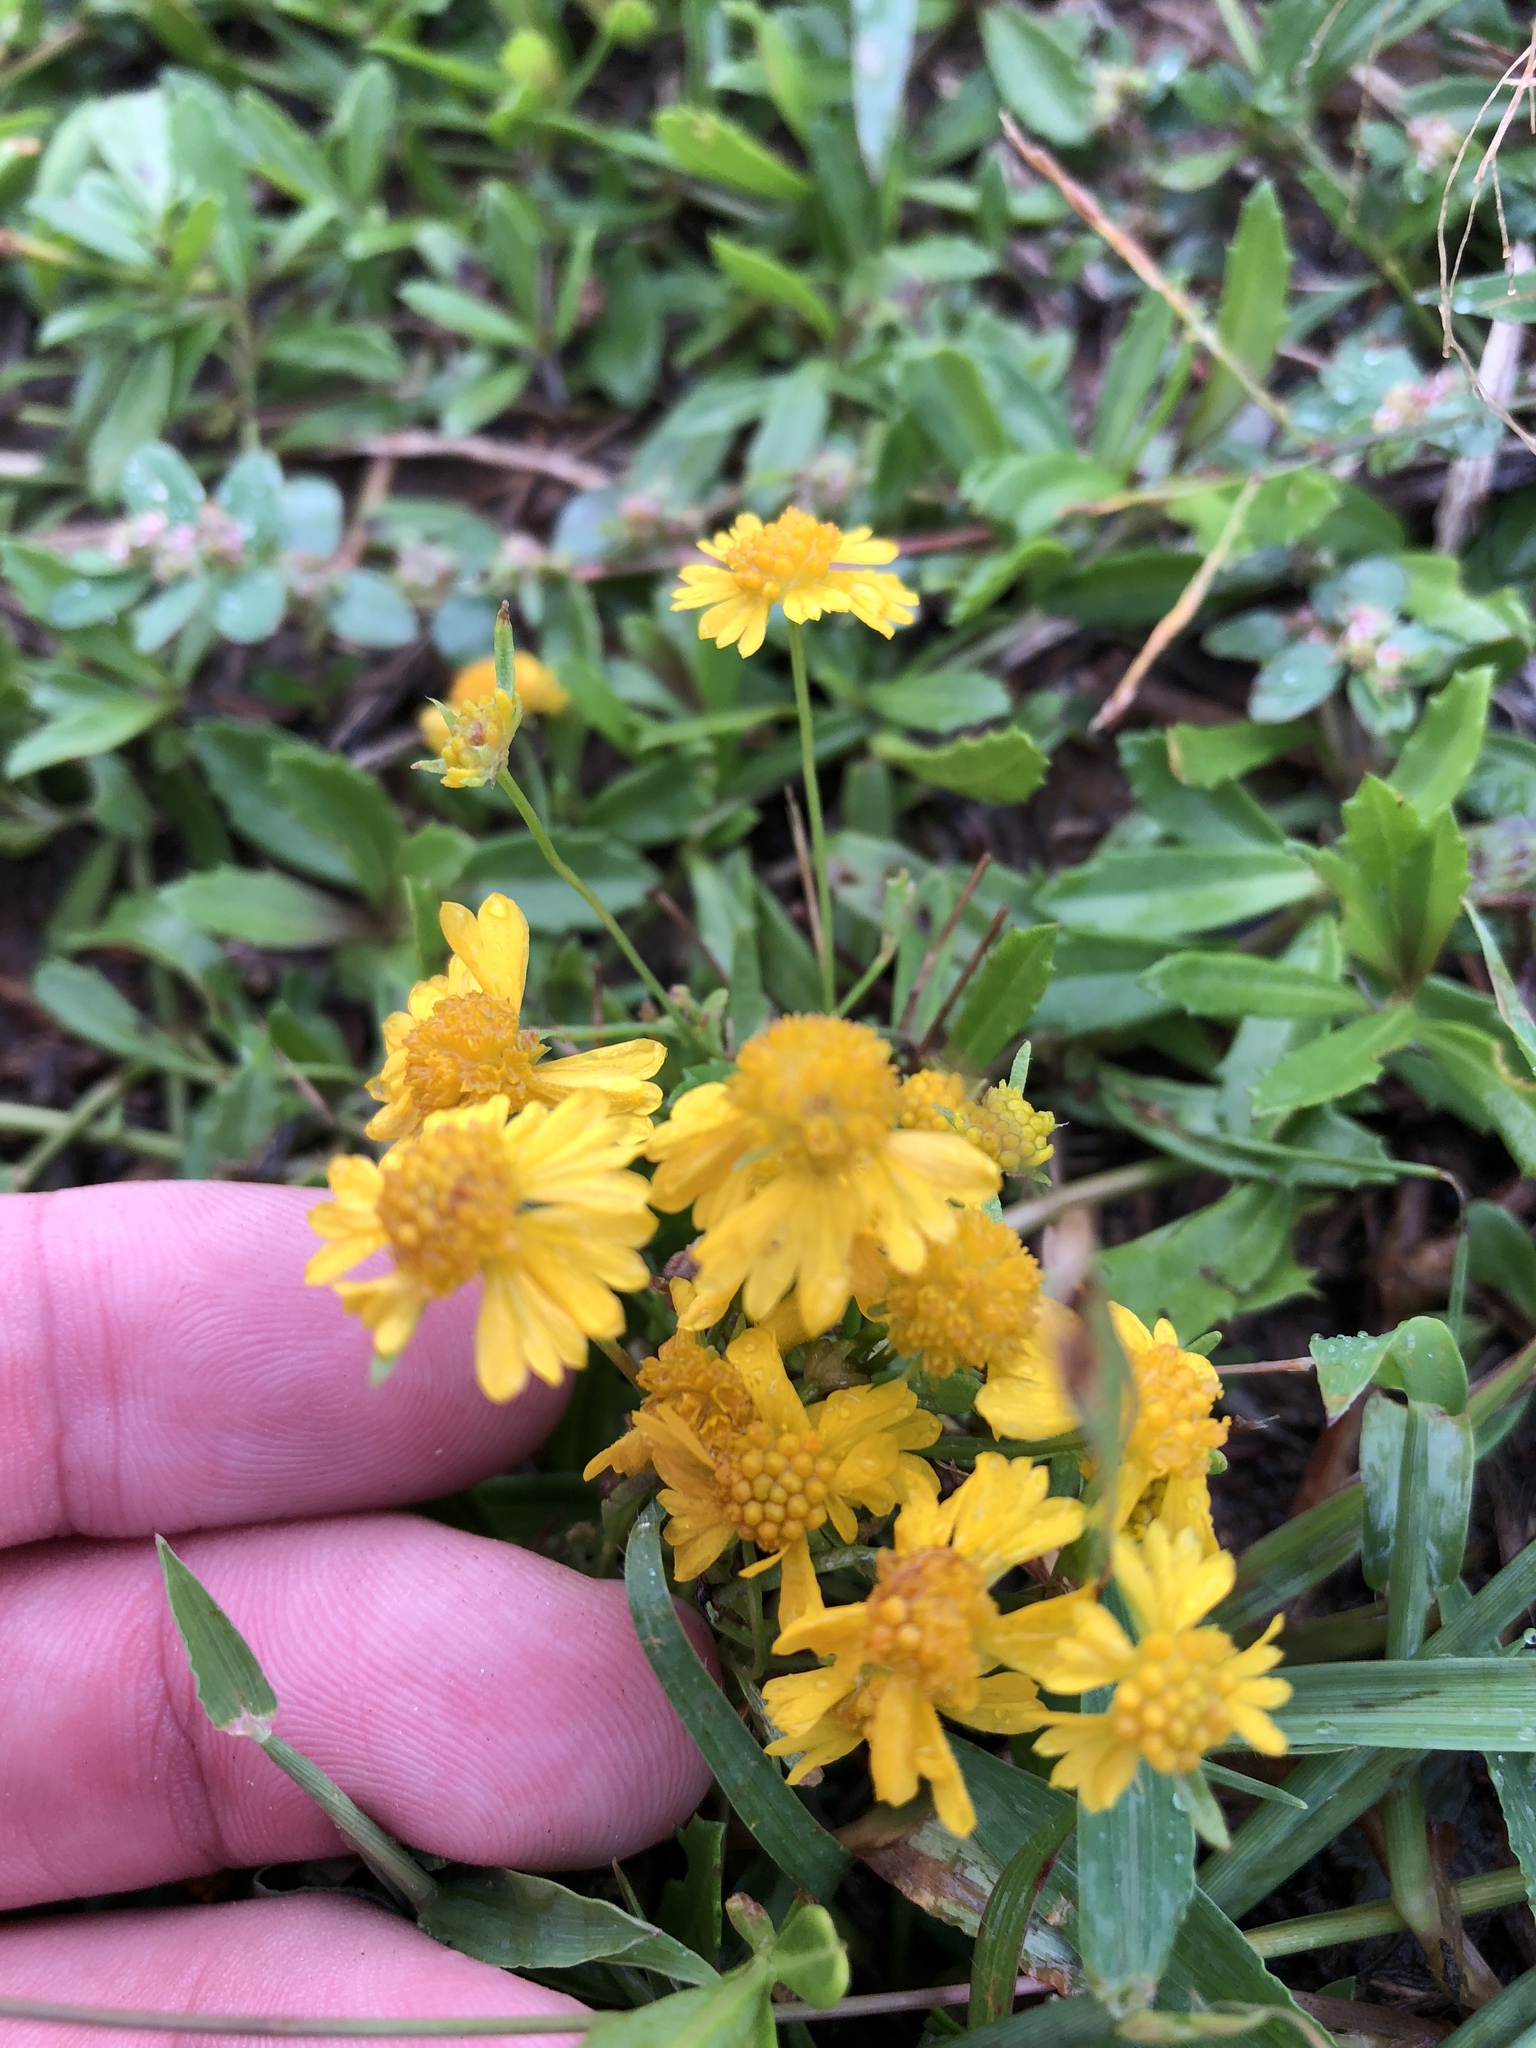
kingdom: Plantae
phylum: Tracheophyta
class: Magnoliopsida
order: Asterales
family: Asteraceae
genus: Helenium
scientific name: Helenium amarum
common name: Bitter sneezeweed
